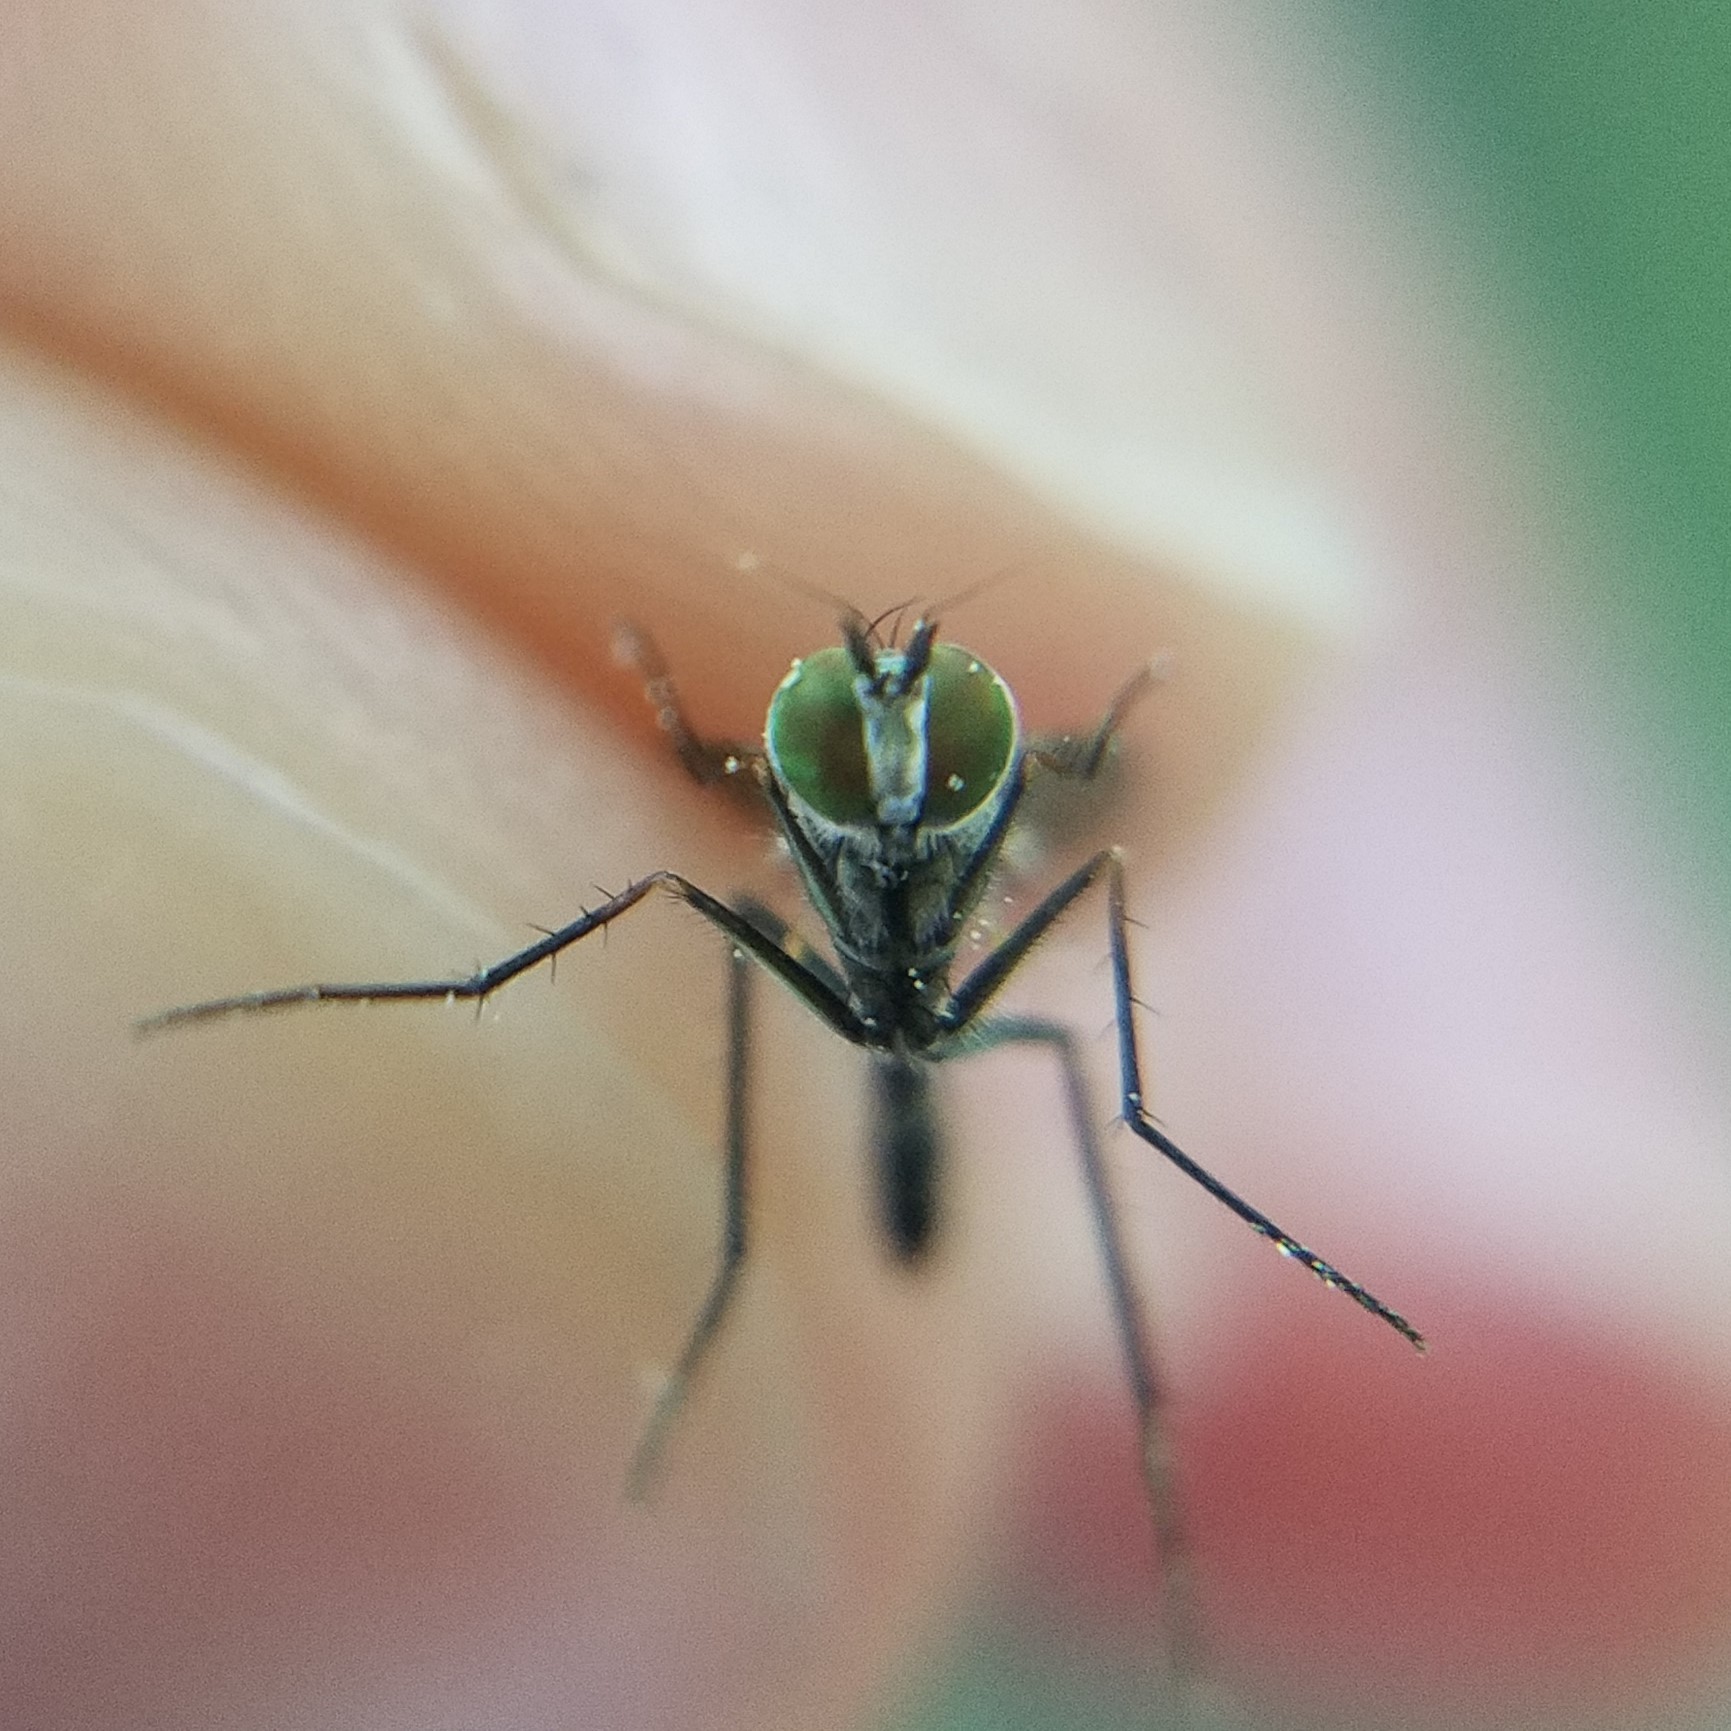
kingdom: Animalia
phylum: Arthropoda
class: Insecta
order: Diptera
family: Dolichopodidae
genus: Plagioneurus
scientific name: Plagioneurus univittatus
